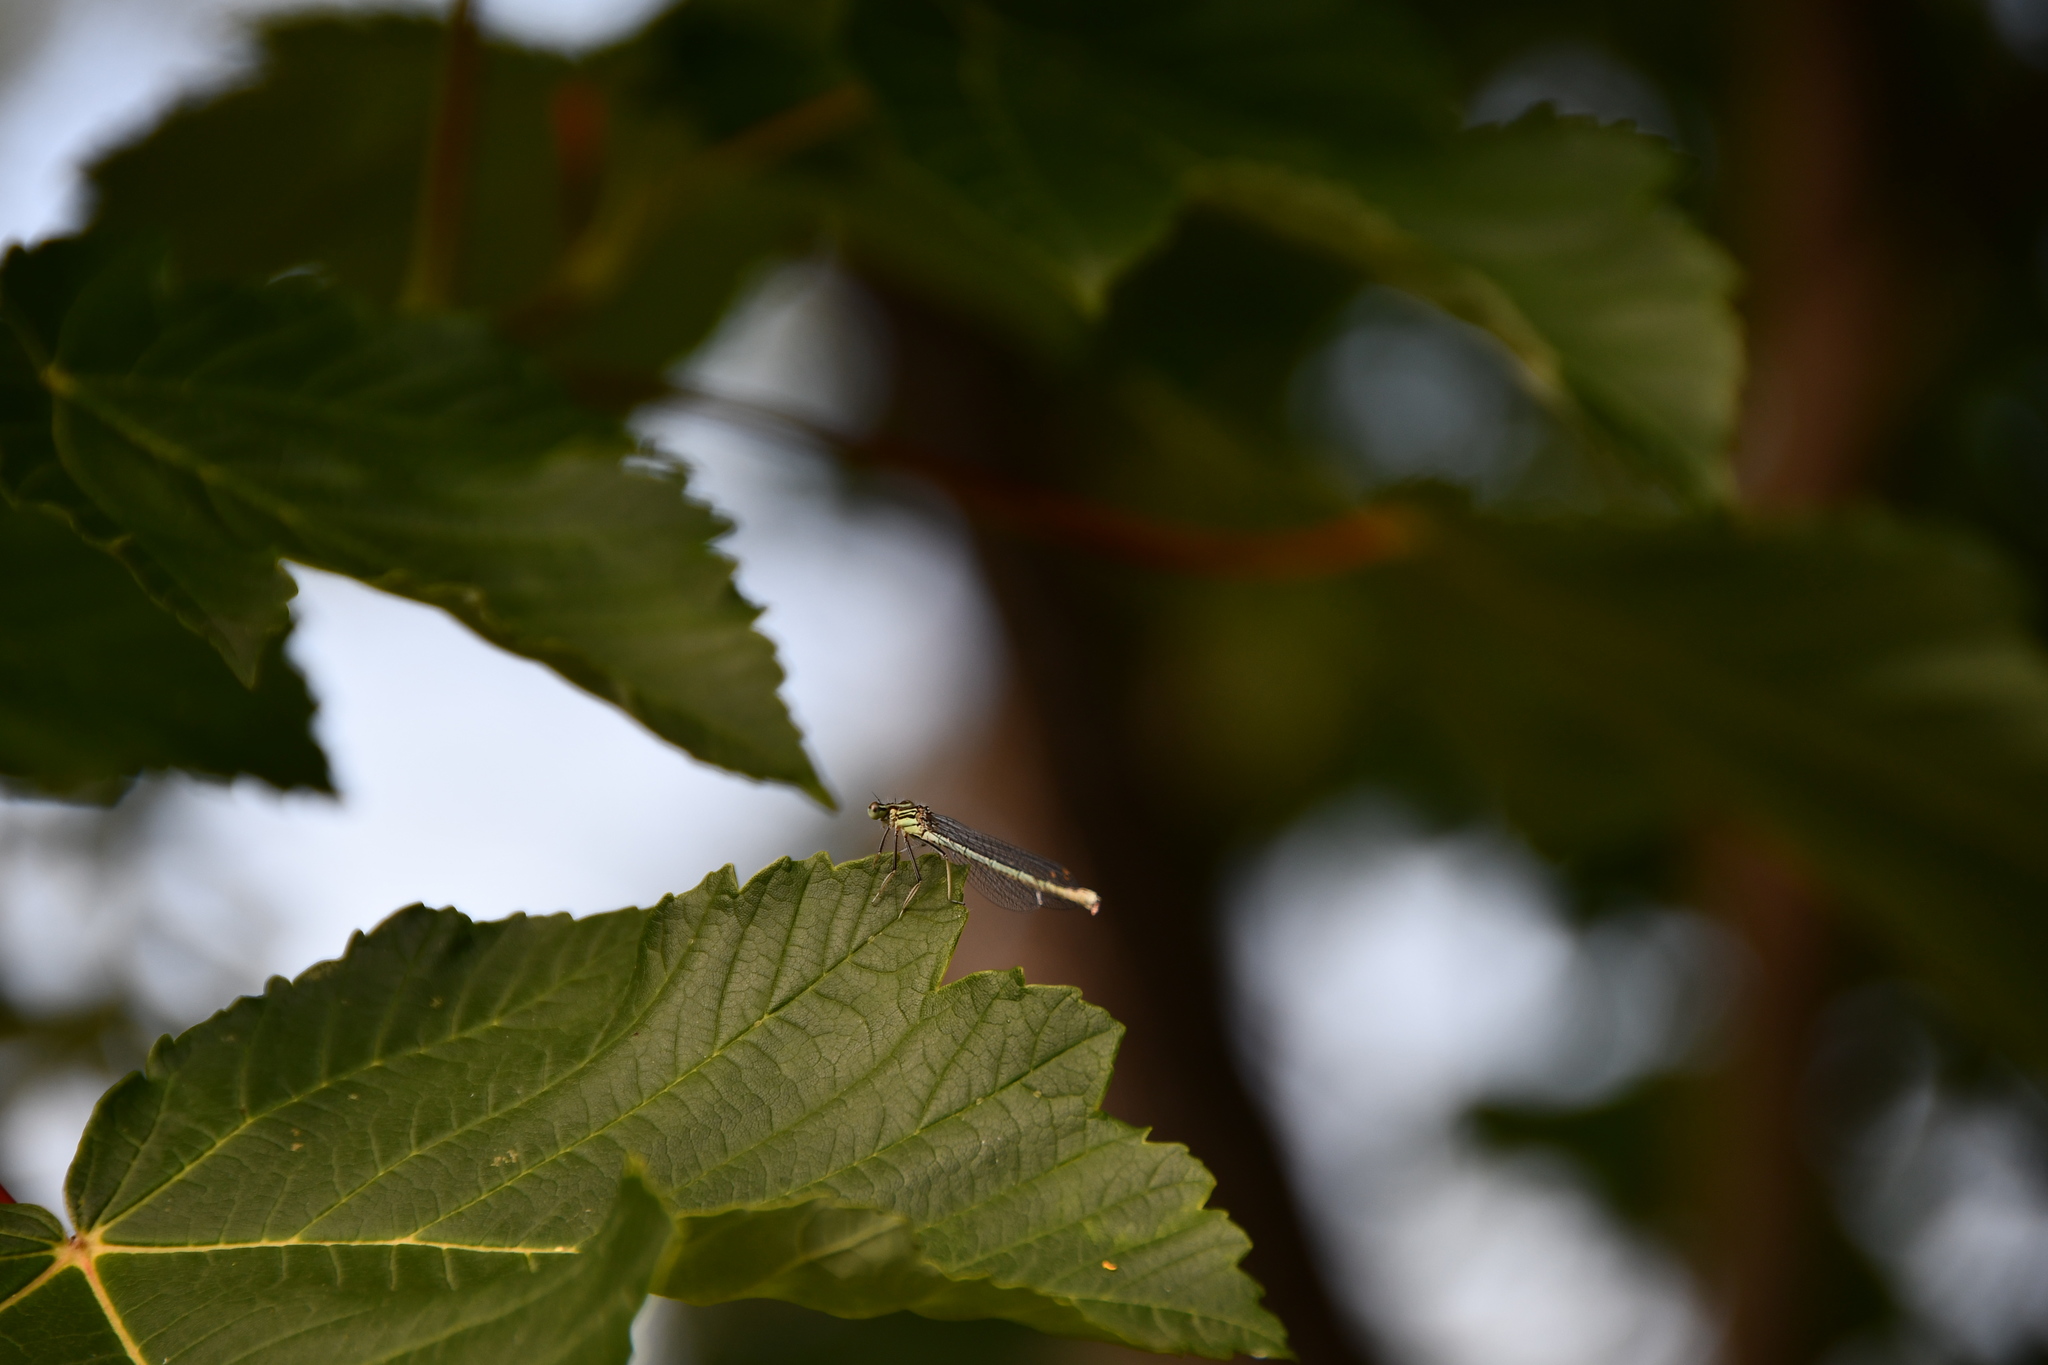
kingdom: Animalia
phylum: Arthropoda
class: Insecta
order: Odonata
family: Platycnemididae
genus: Platycnemis
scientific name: Platycnemis pennipes
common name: White-legged damselfly
